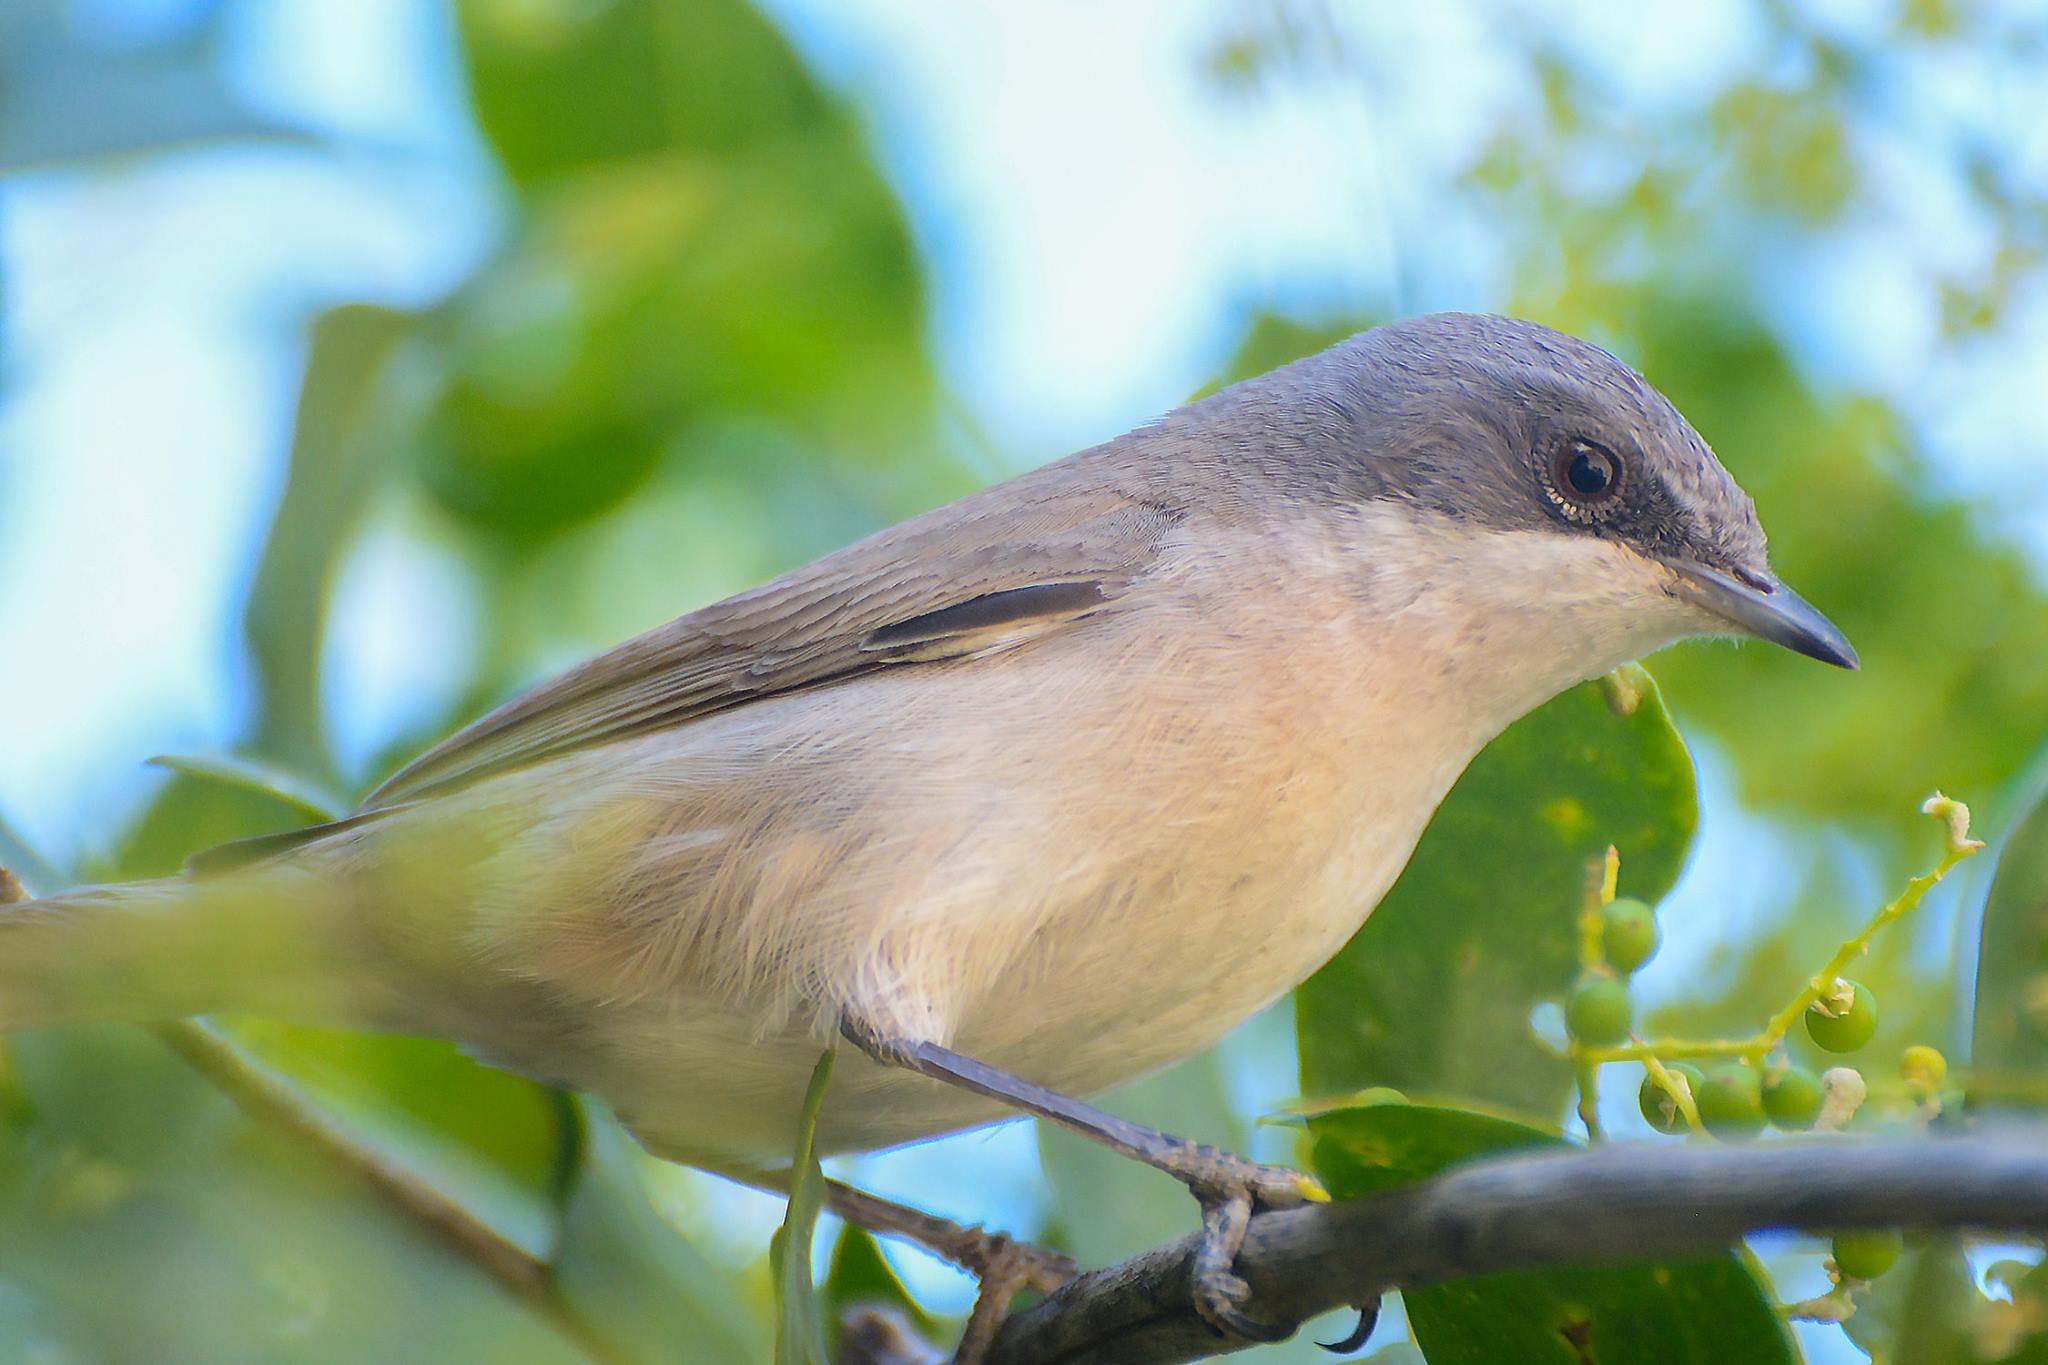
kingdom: Animalia
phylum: Chordata
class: Aves
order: Passeriformes
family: Sylviidae
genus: Sylvia
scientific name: Sylvia curruca
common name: Lesser whitethroat
